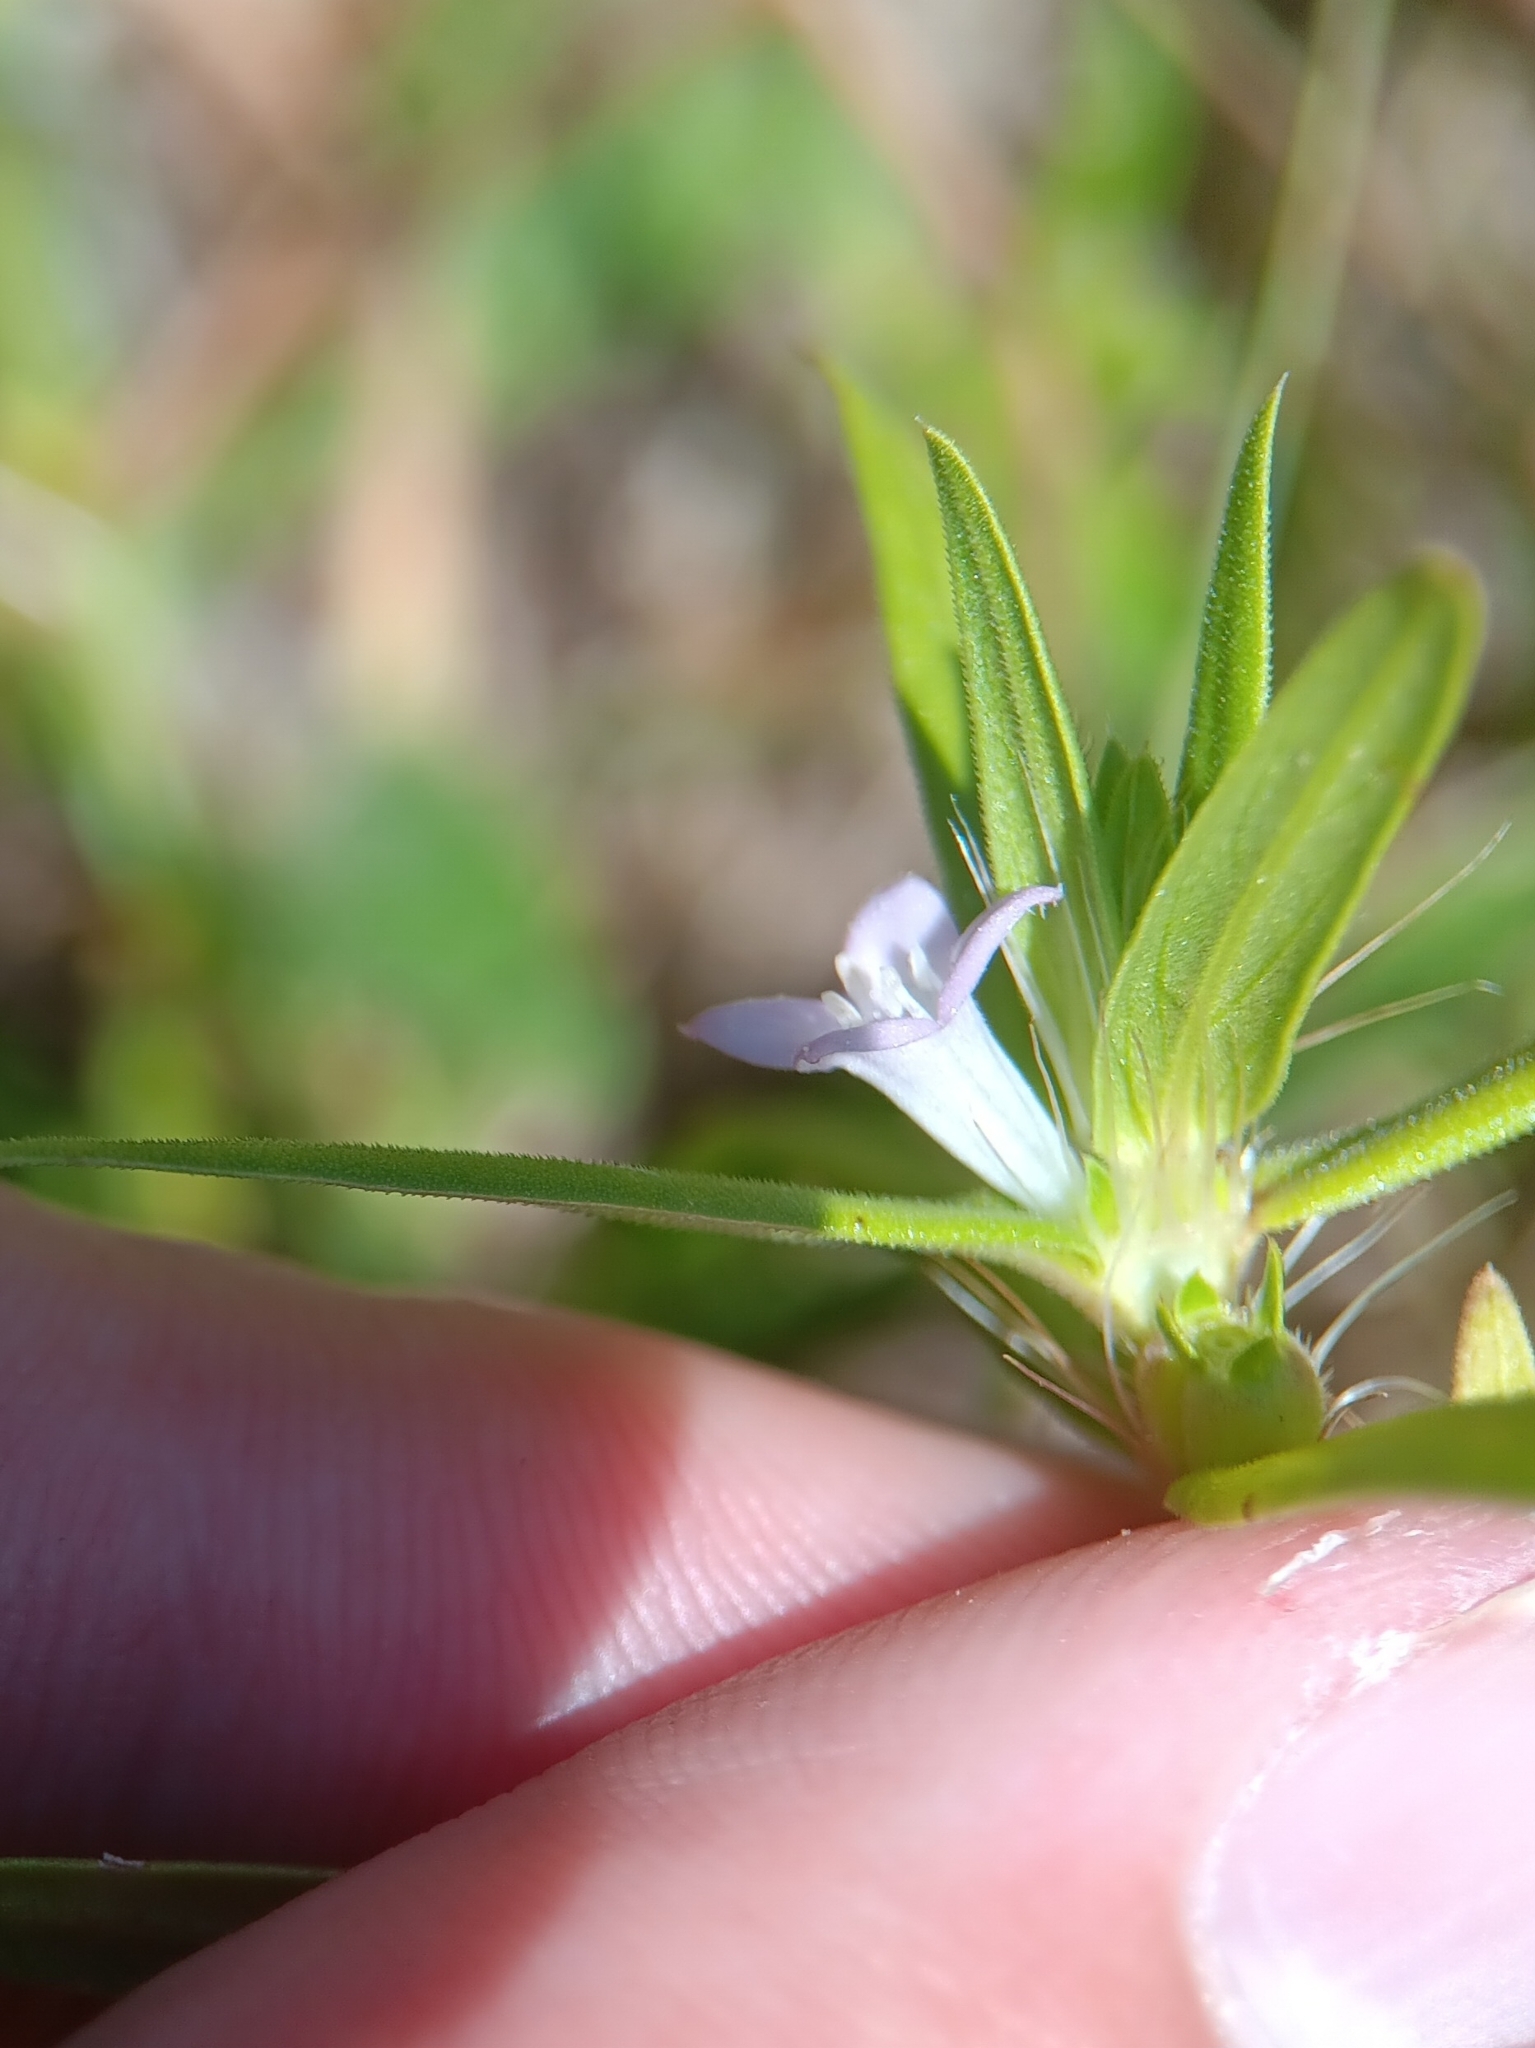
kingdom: Plantae
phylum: Tracheophyta
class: Magnoliopsida
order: Gentianales
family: Rubiaceae
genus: Hexasepalum
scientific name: Hexasepalum teres
